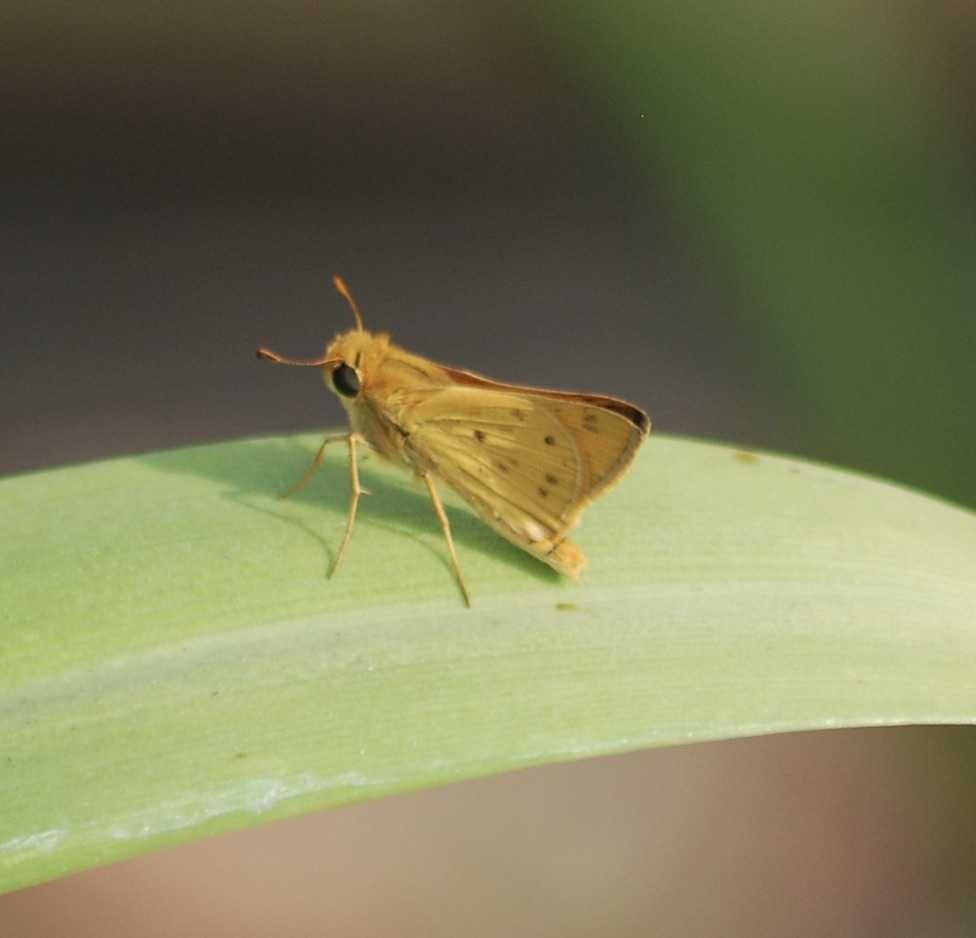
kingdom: Animalia
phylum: Arthropoda
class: Insecta
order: Lepidoptera
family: Hesperiidae
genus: Hylephila
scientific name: Hylephila phyleus
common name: Fiery skipper
